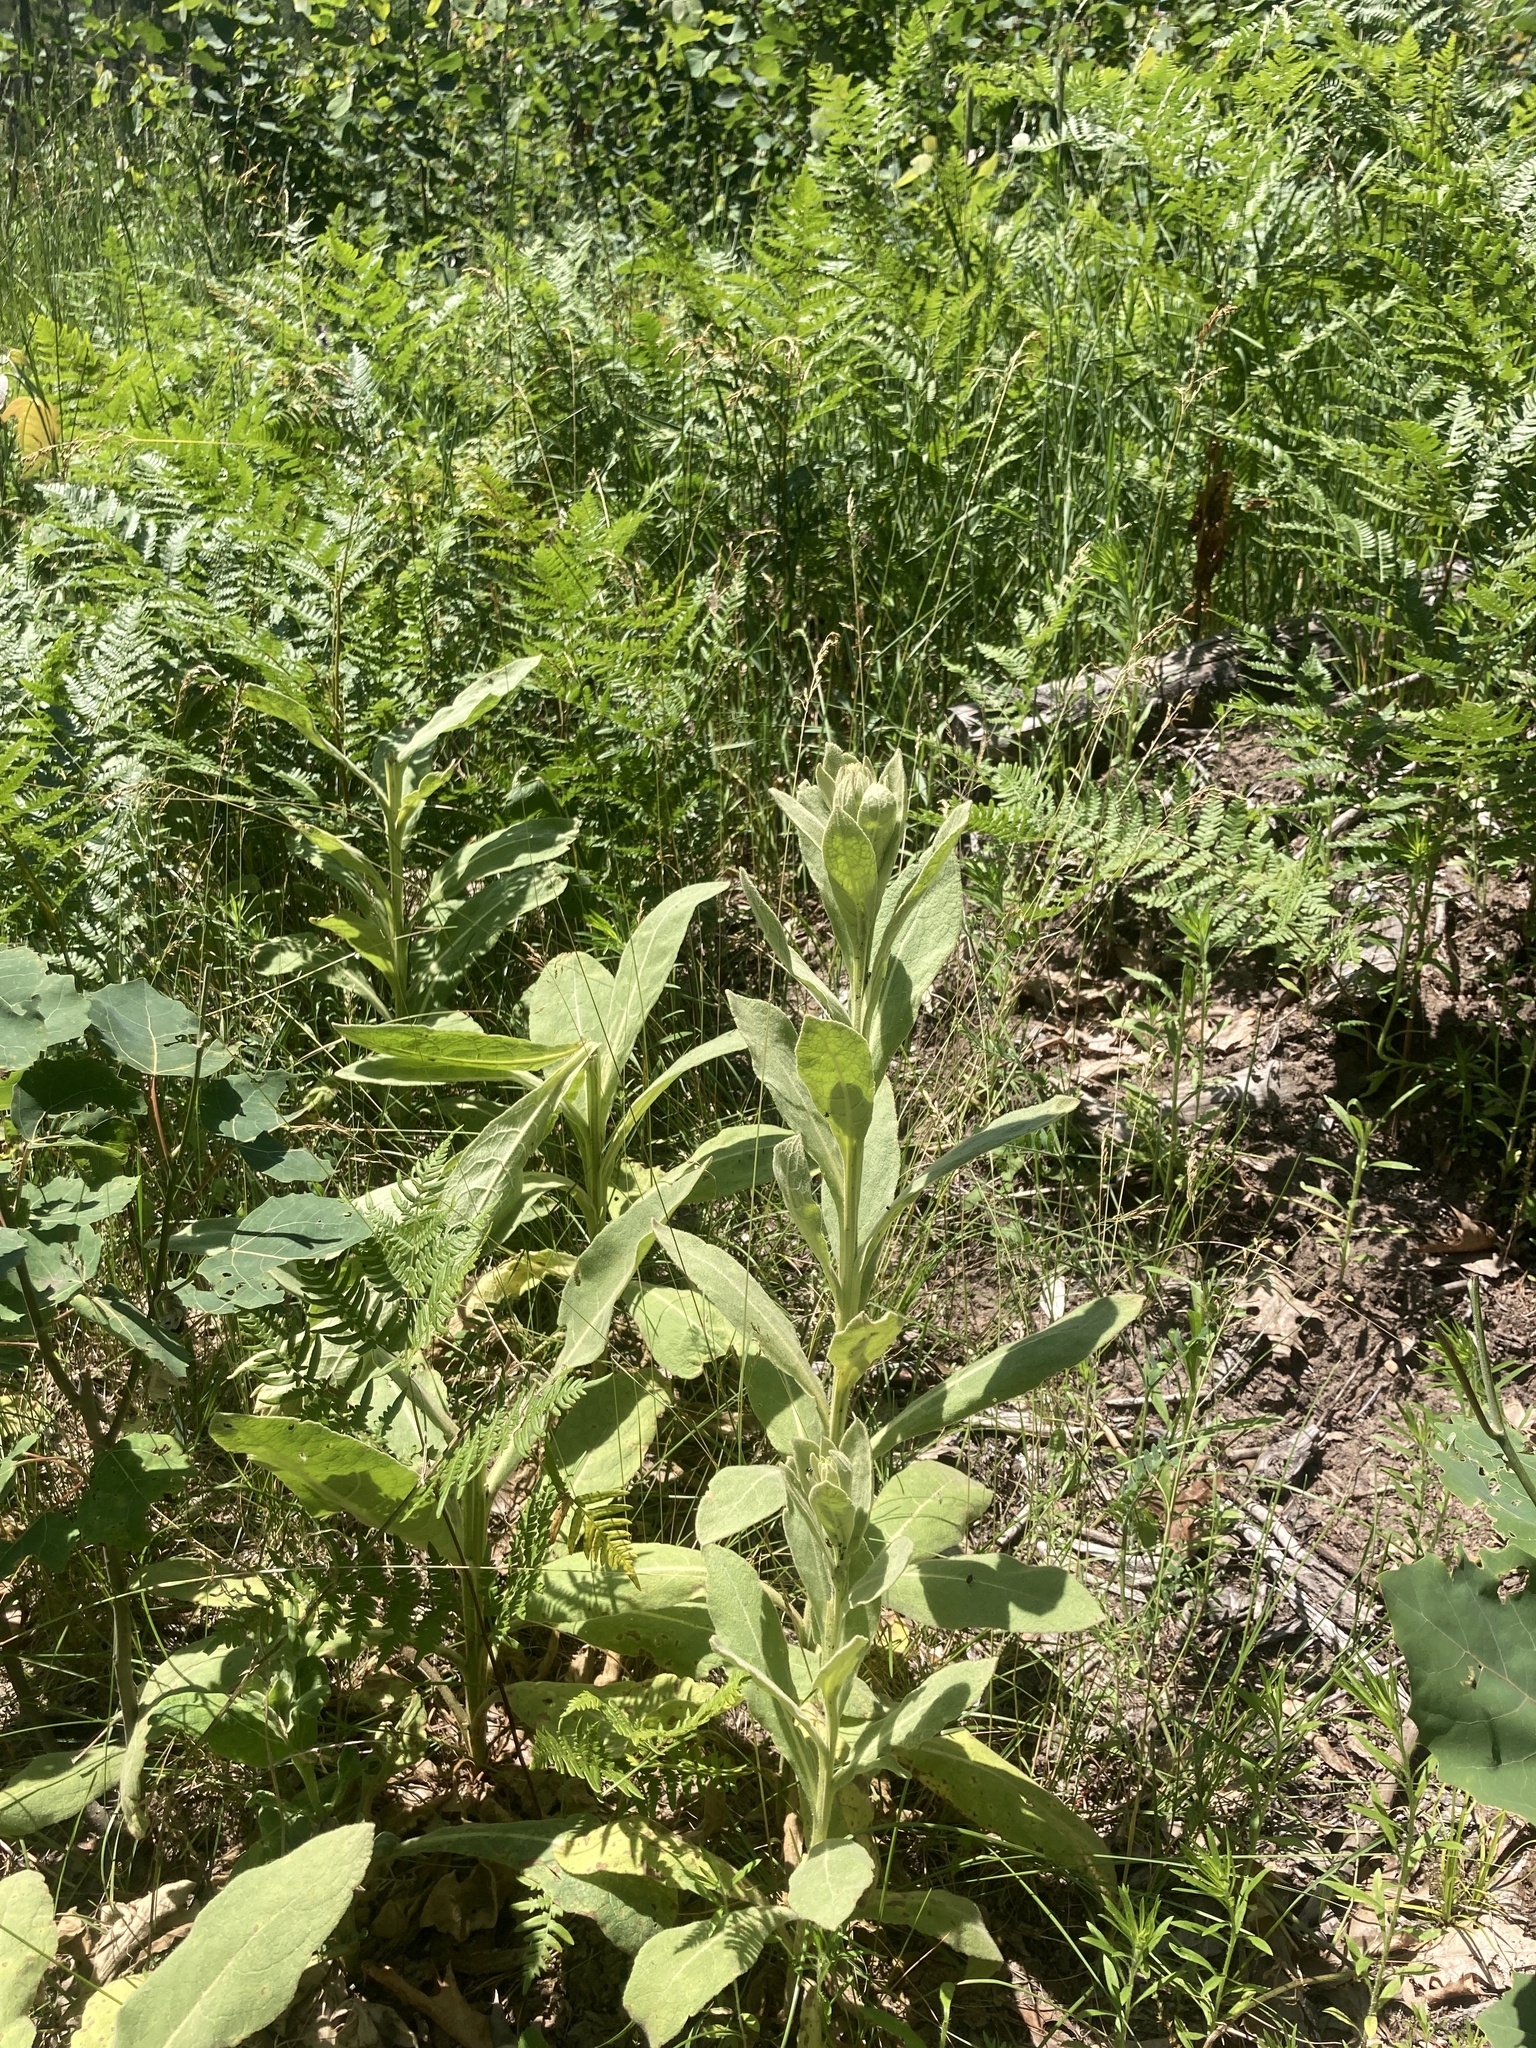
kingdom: Plantae
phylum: Tracheophyta
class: Magnoliopsida
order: Lamiales
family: Scrophulariaceae
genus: Verbascum
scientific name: Verbascum thapsus
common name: Common mullein
